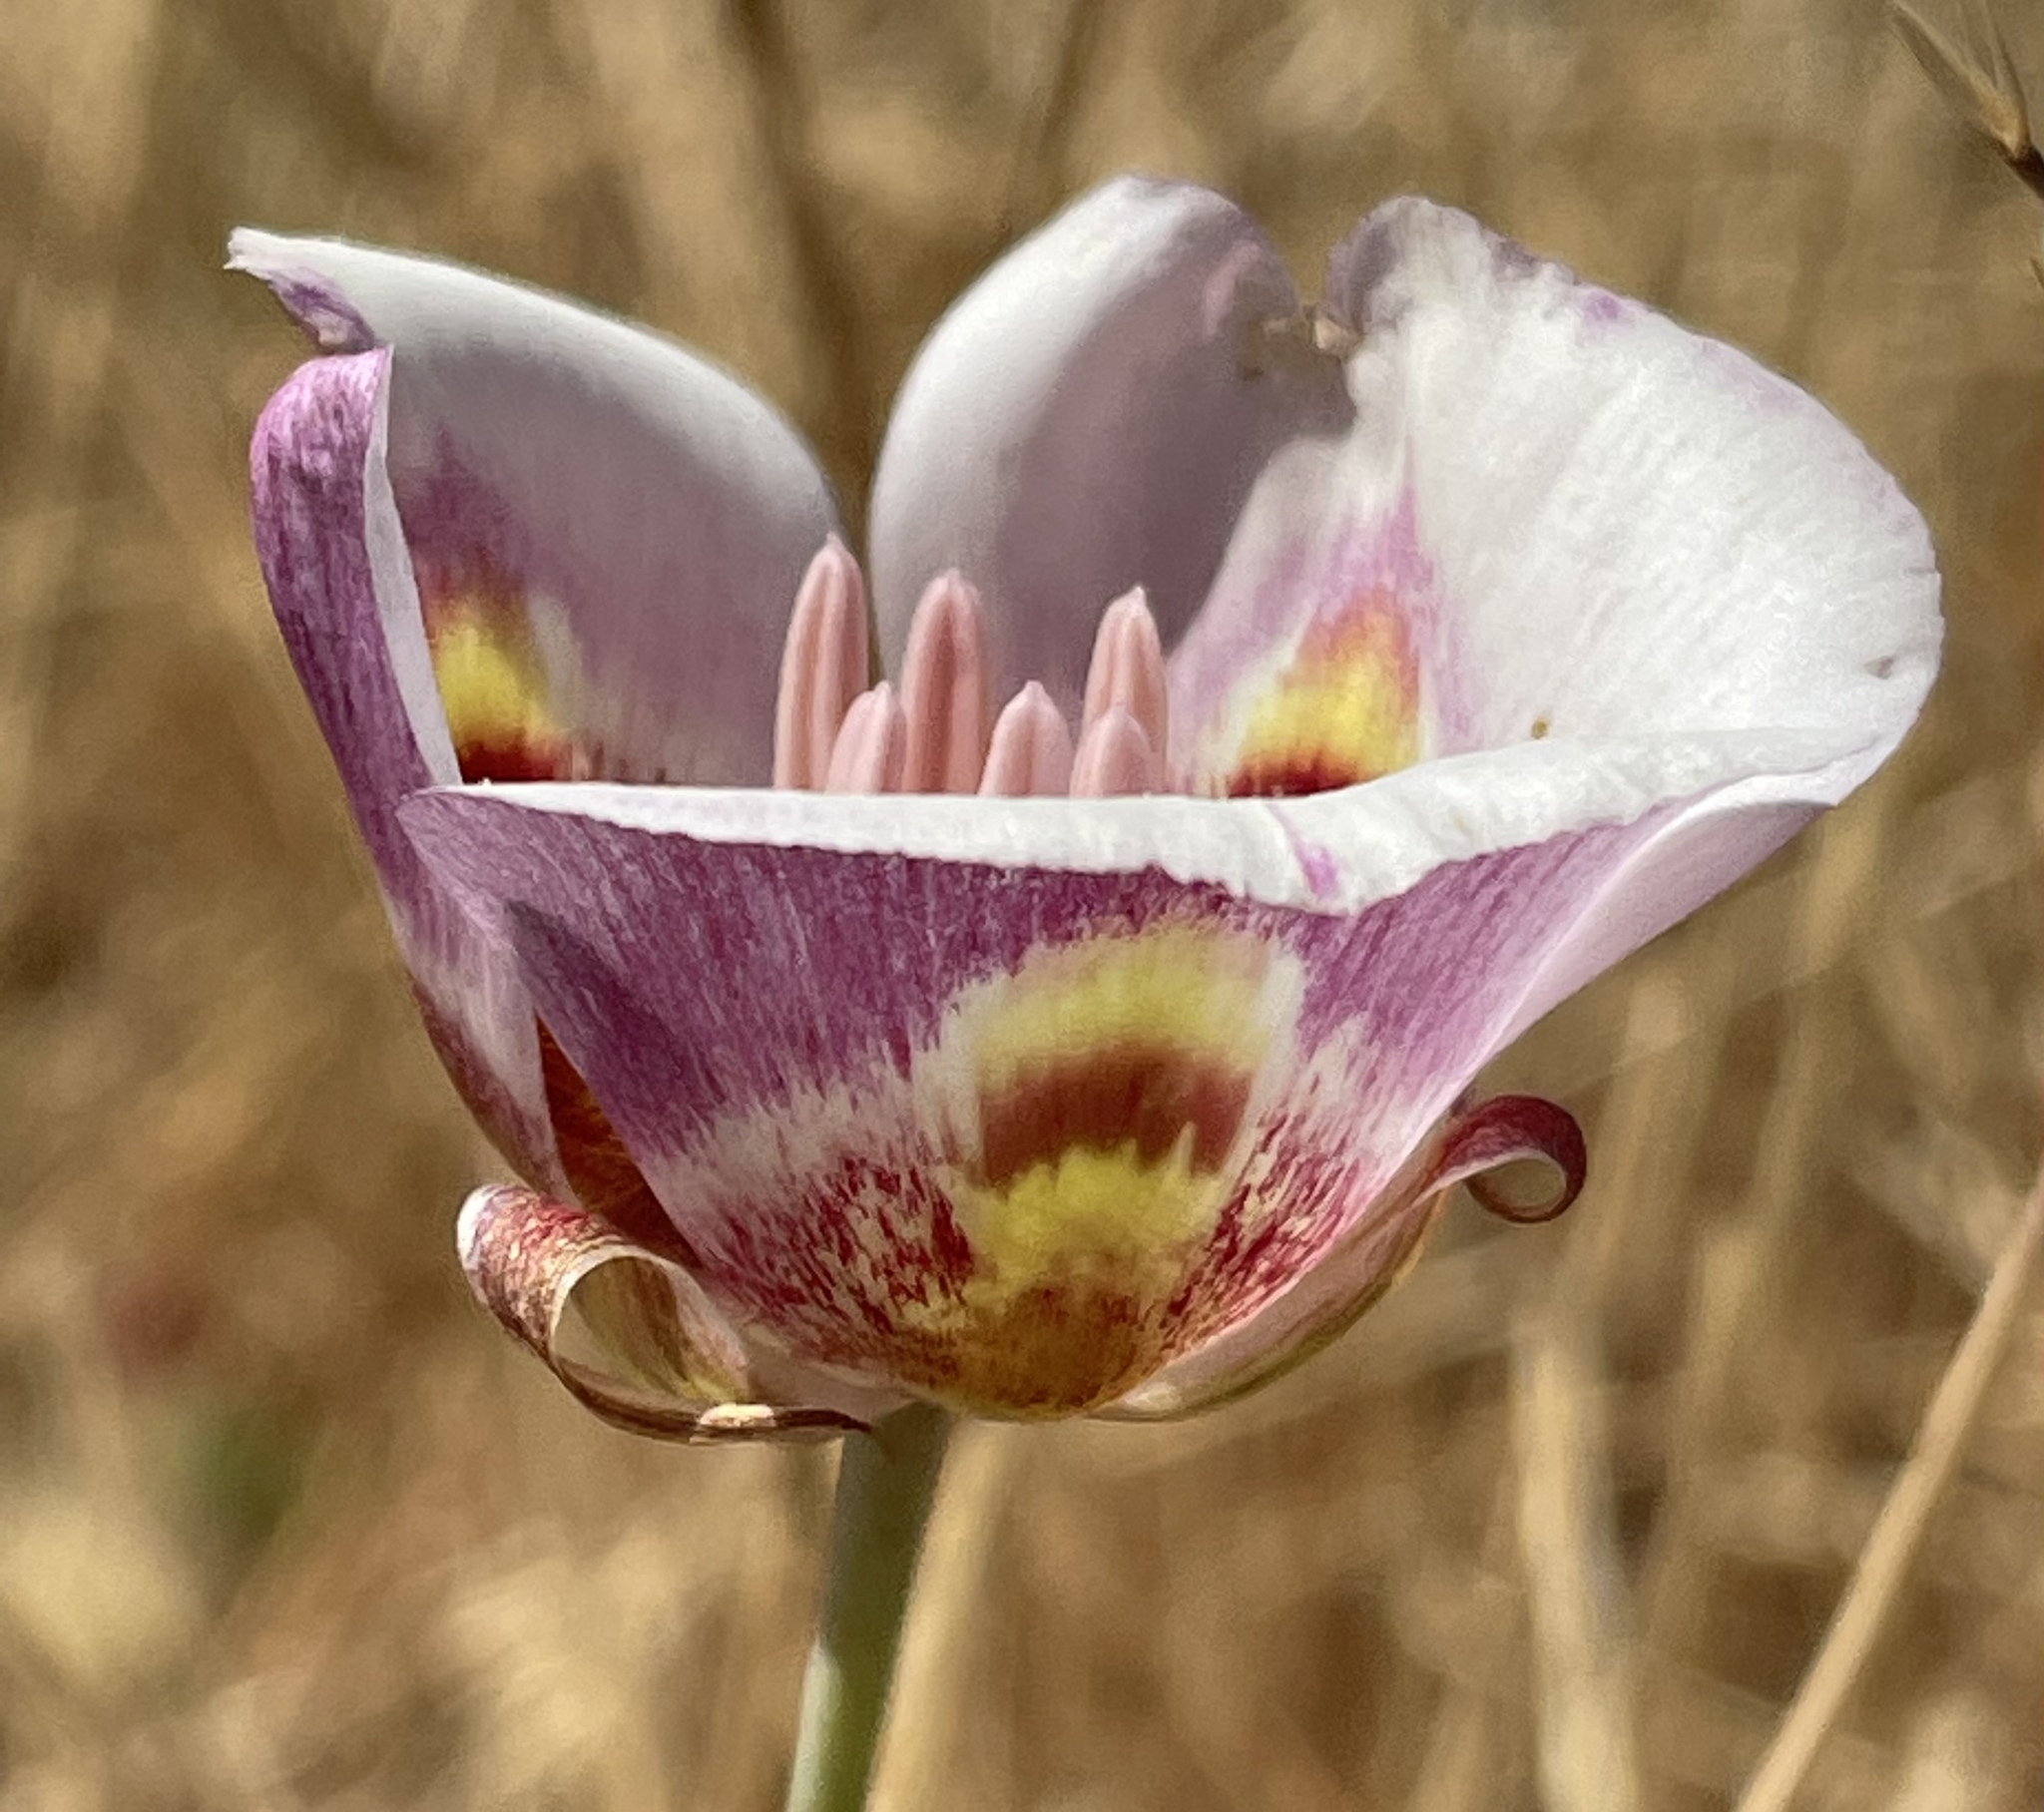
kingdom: Plantae
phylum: Tracheophyta
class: Liliopsida
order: Liliales
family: Liliaceae
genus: Calochortus
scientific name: Calochortus argillosus
